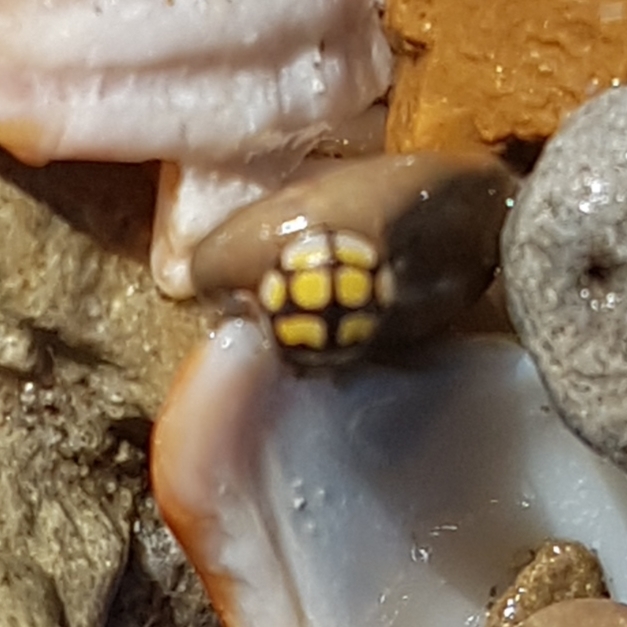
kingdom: Animalia
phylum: Arthropoda
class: Insecta
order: Coleoptera
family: Coccinellidae
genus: Oenopia
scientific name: Oenopia lyncea
